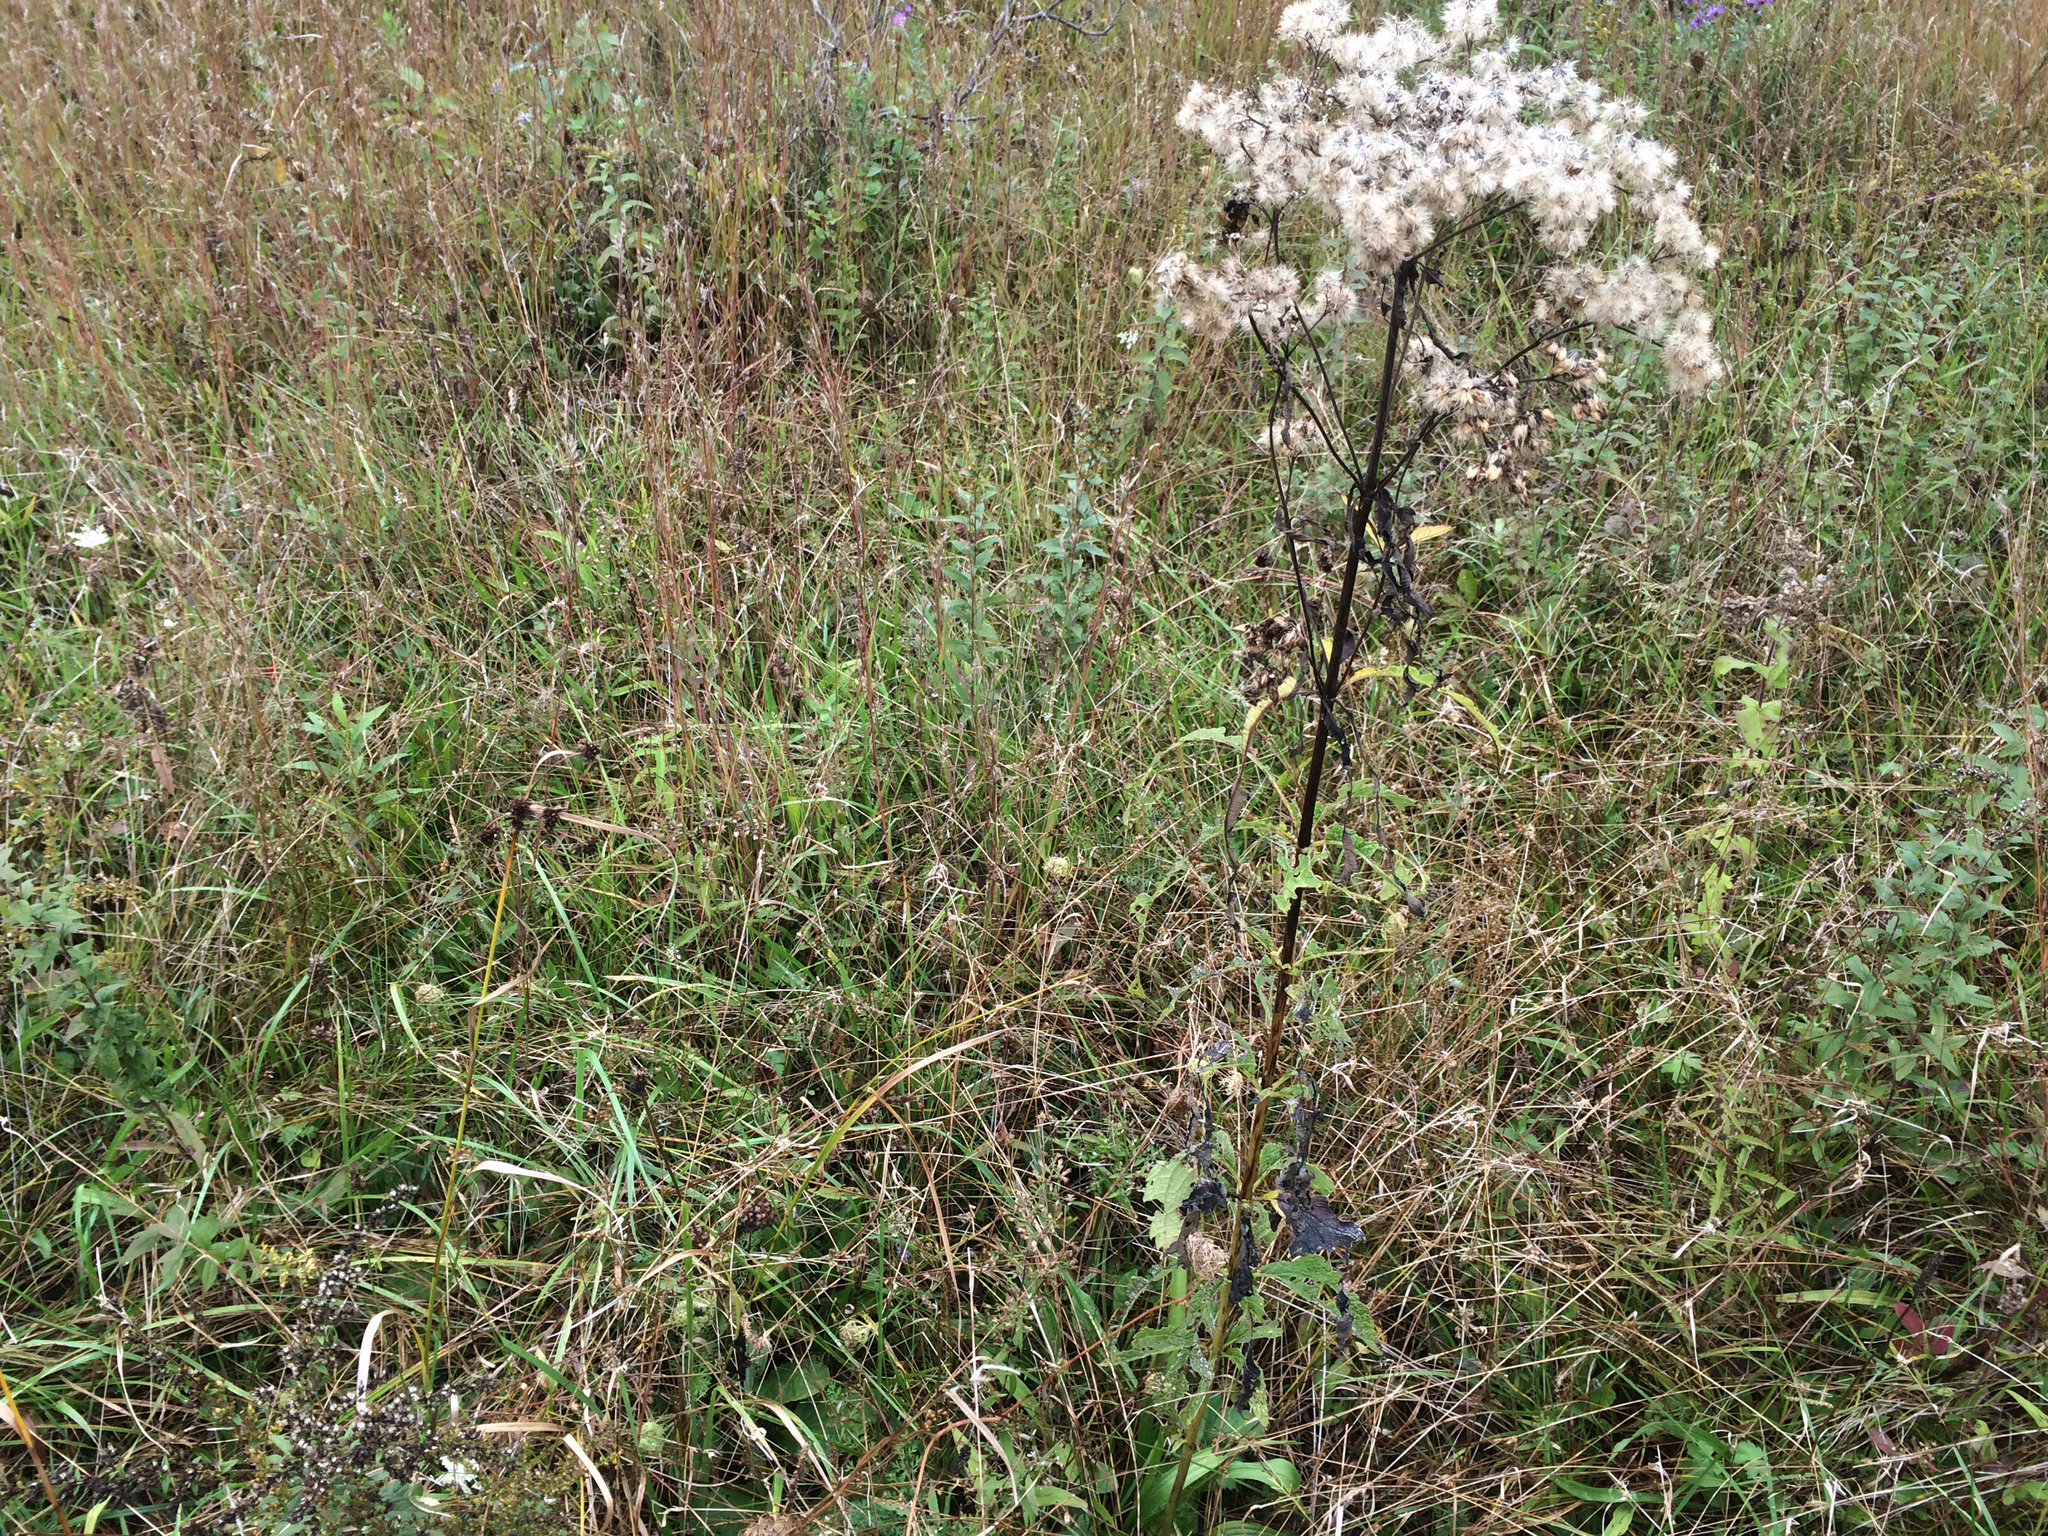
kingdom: Plantae
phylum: Tracheophyta
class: Magnoliopsida
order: Asterales
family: Asteraceae
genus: Eutrochium
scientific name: Eutrochium maculatum
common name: Spotted joe pye weed
